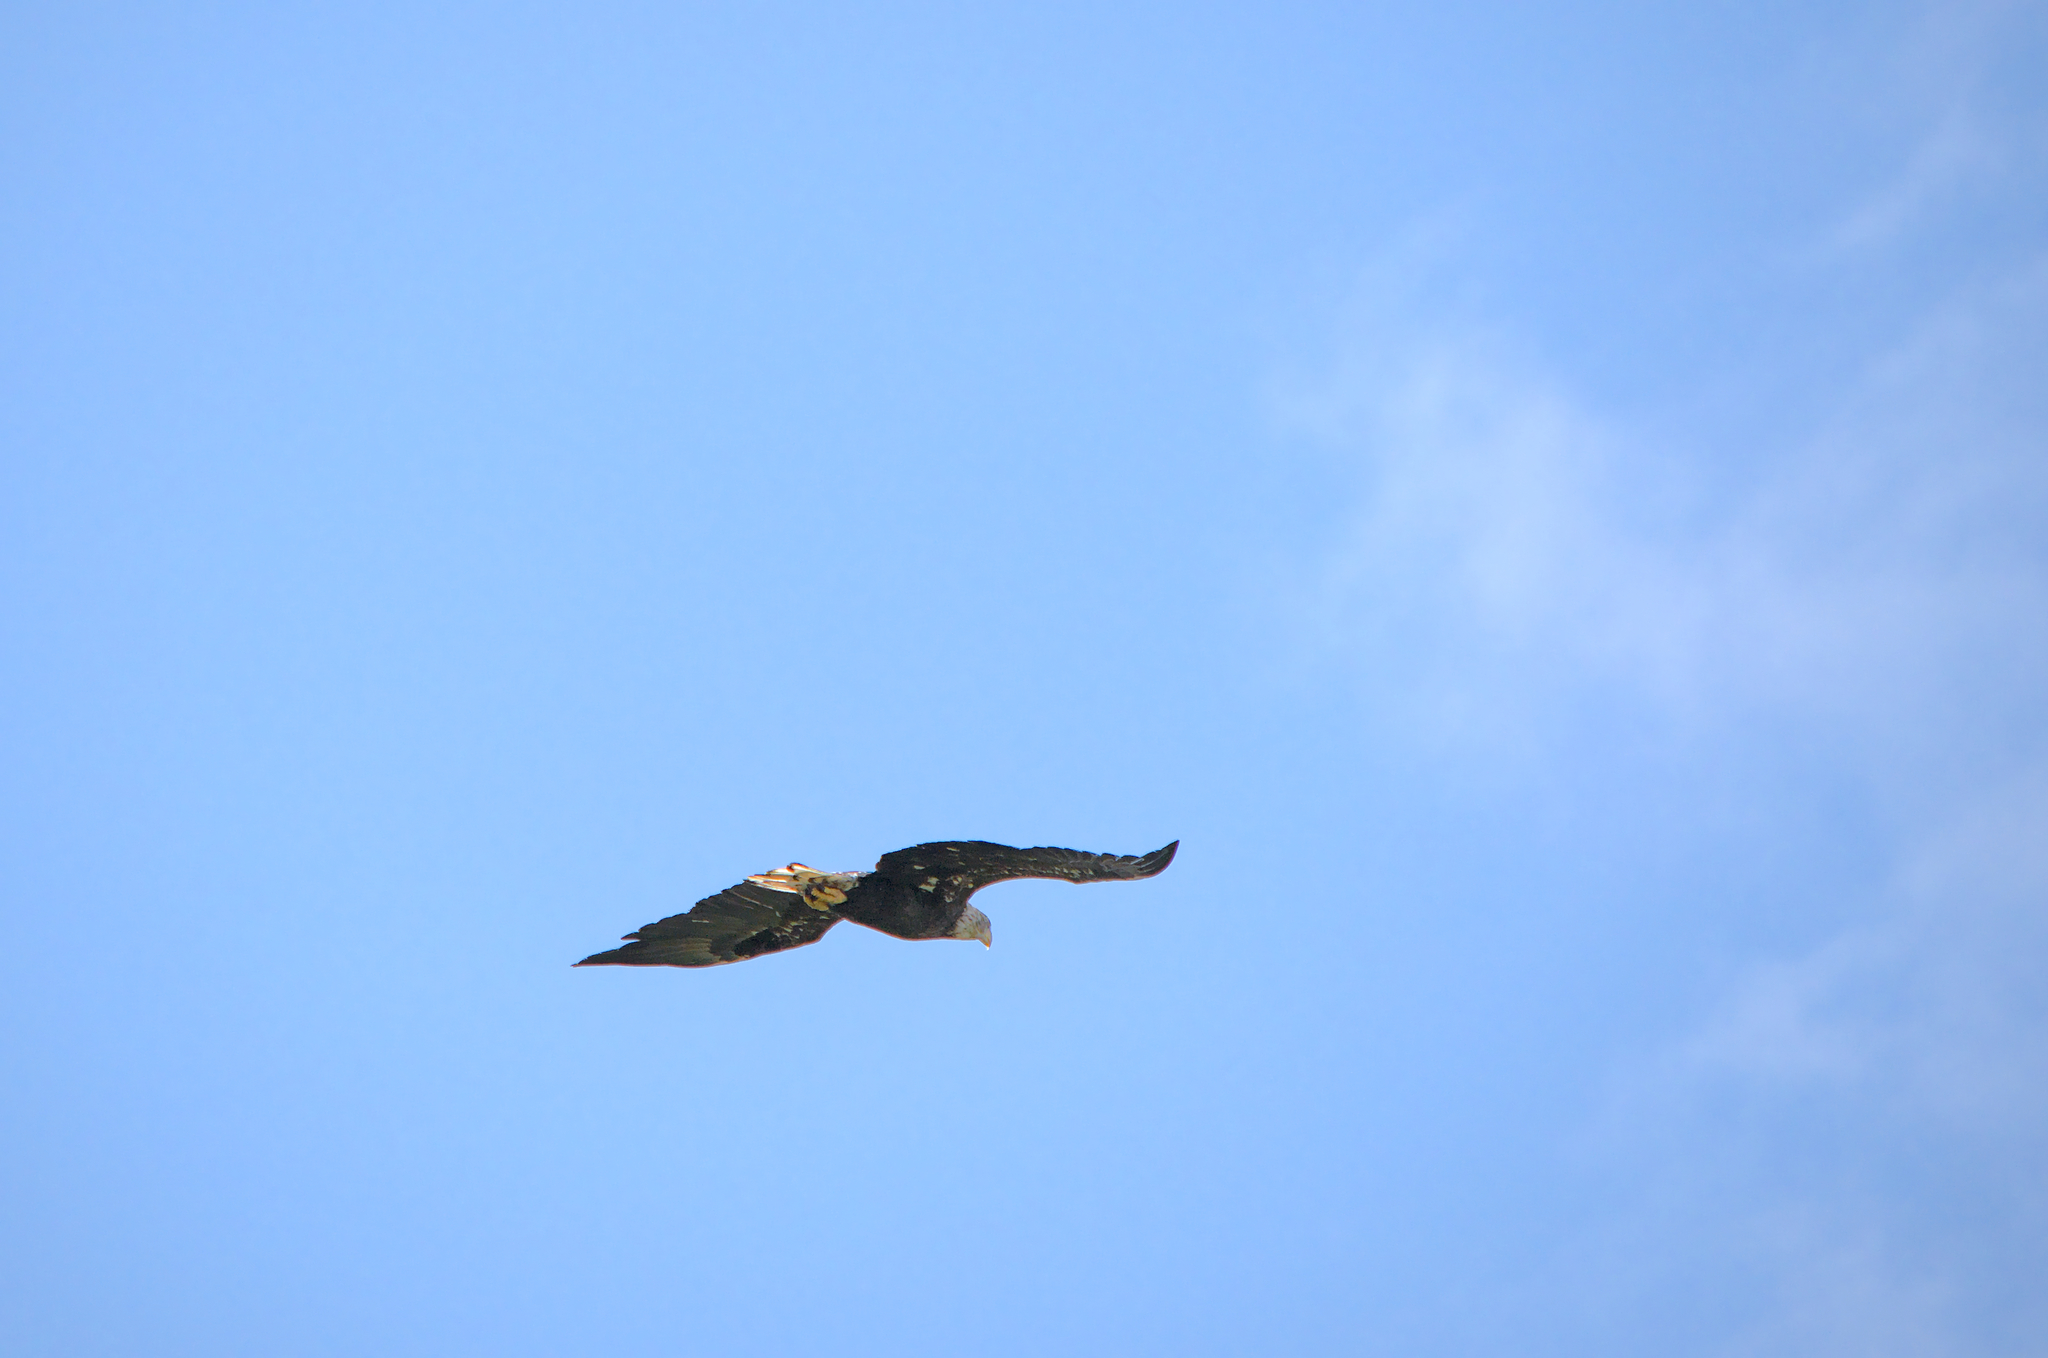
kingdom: Animalia
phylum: Chordata
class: Aves
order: Accipitriformes
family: Accipitridae
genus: Haliaeetus
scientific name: Haliaeetus leucocephalus
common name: Bald eagle
